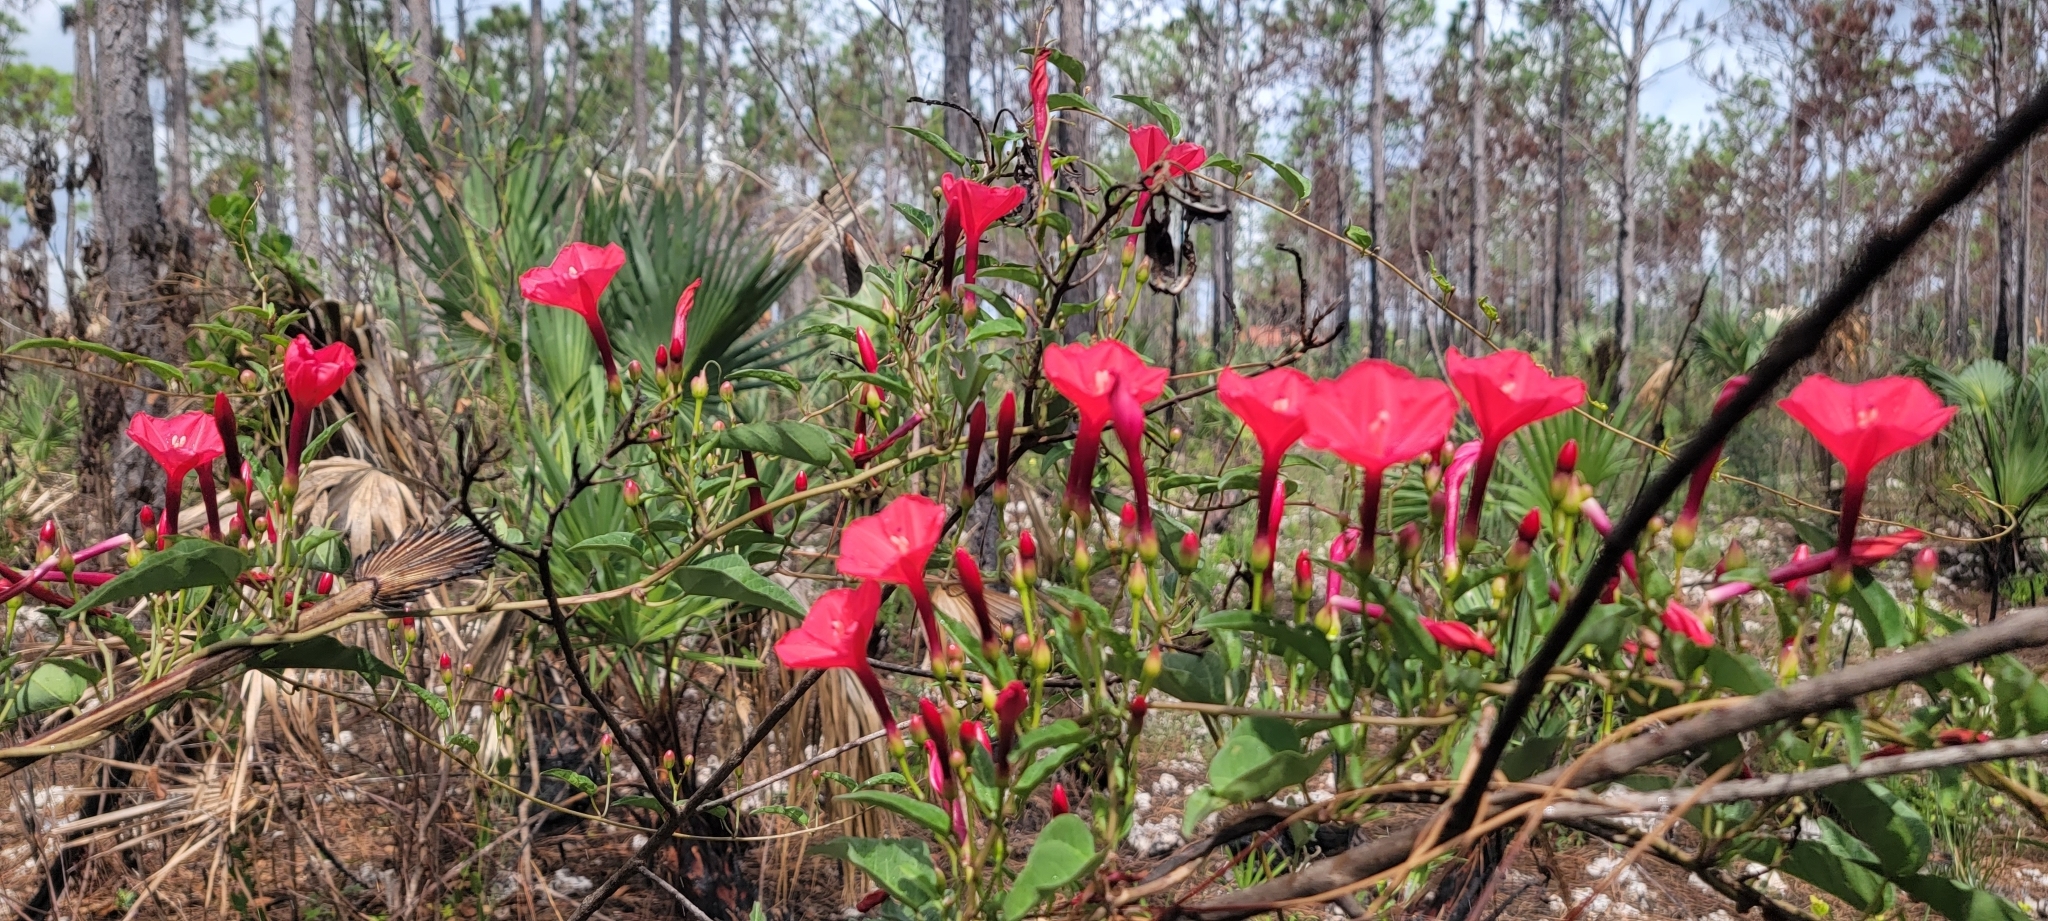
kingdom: Plantae
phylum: Tracheophyta
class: Magnoliopsida
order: Solanales
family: Convolvulaceae
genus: Ipomoea
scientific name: Ipomoea microdactyla
